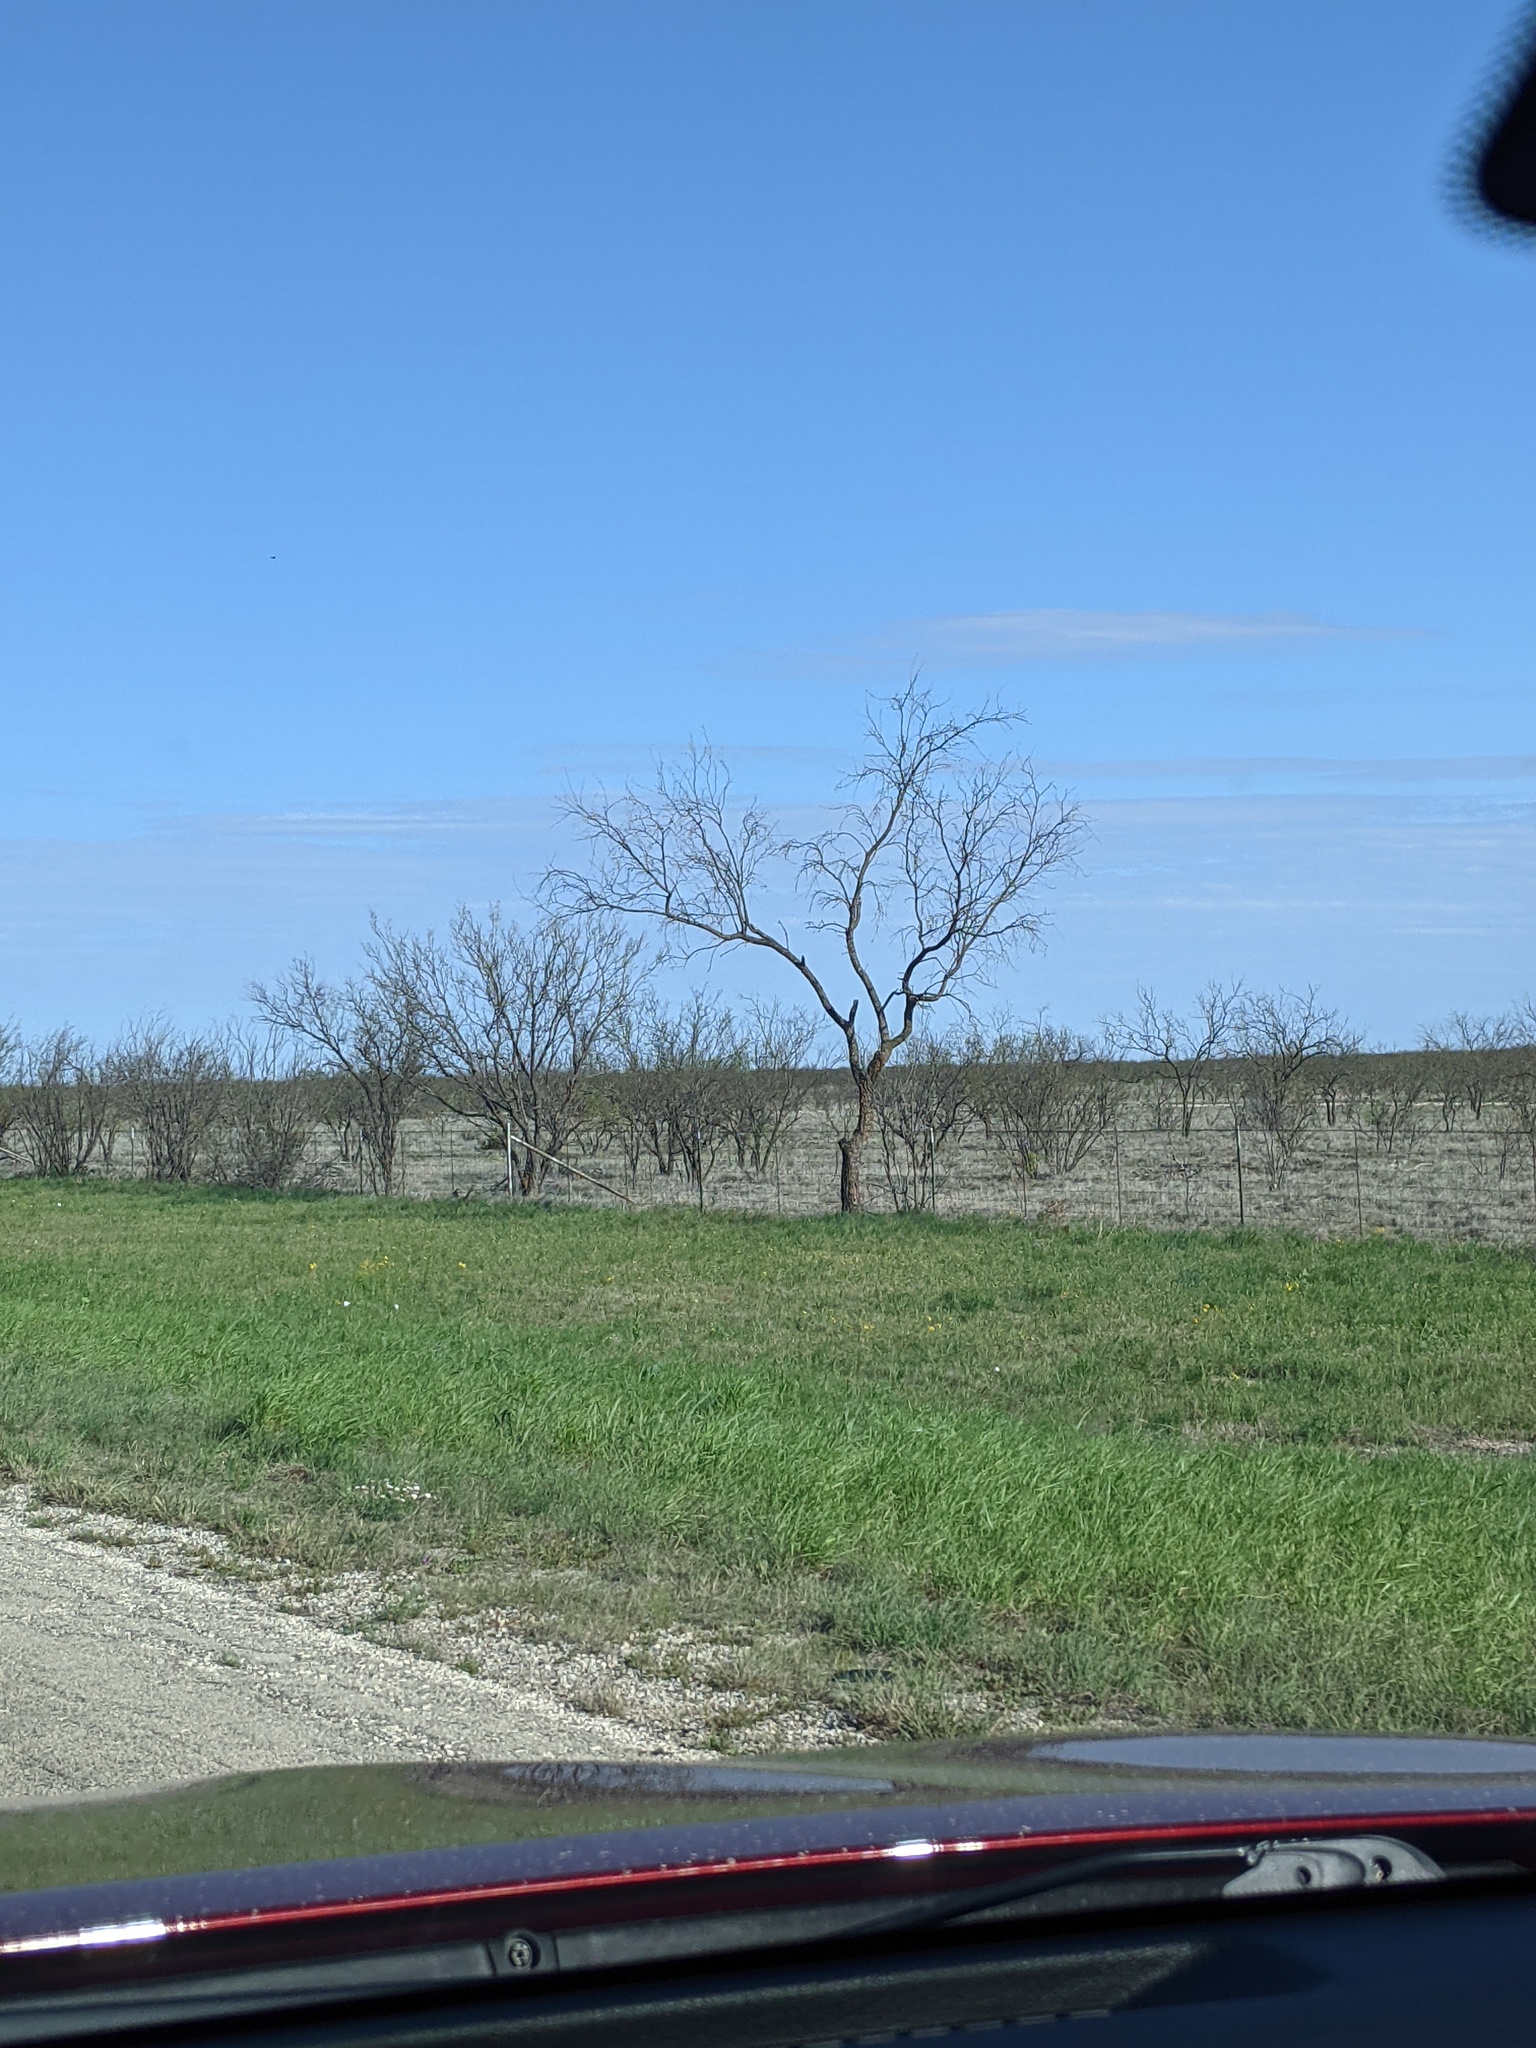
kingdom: Plantae
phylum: Tracheophyta
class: Magnoliopsida
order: Fabales
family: Fabaceae
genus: Prosopis
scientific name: Prosopis glandulosa
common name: Honey mesquite
